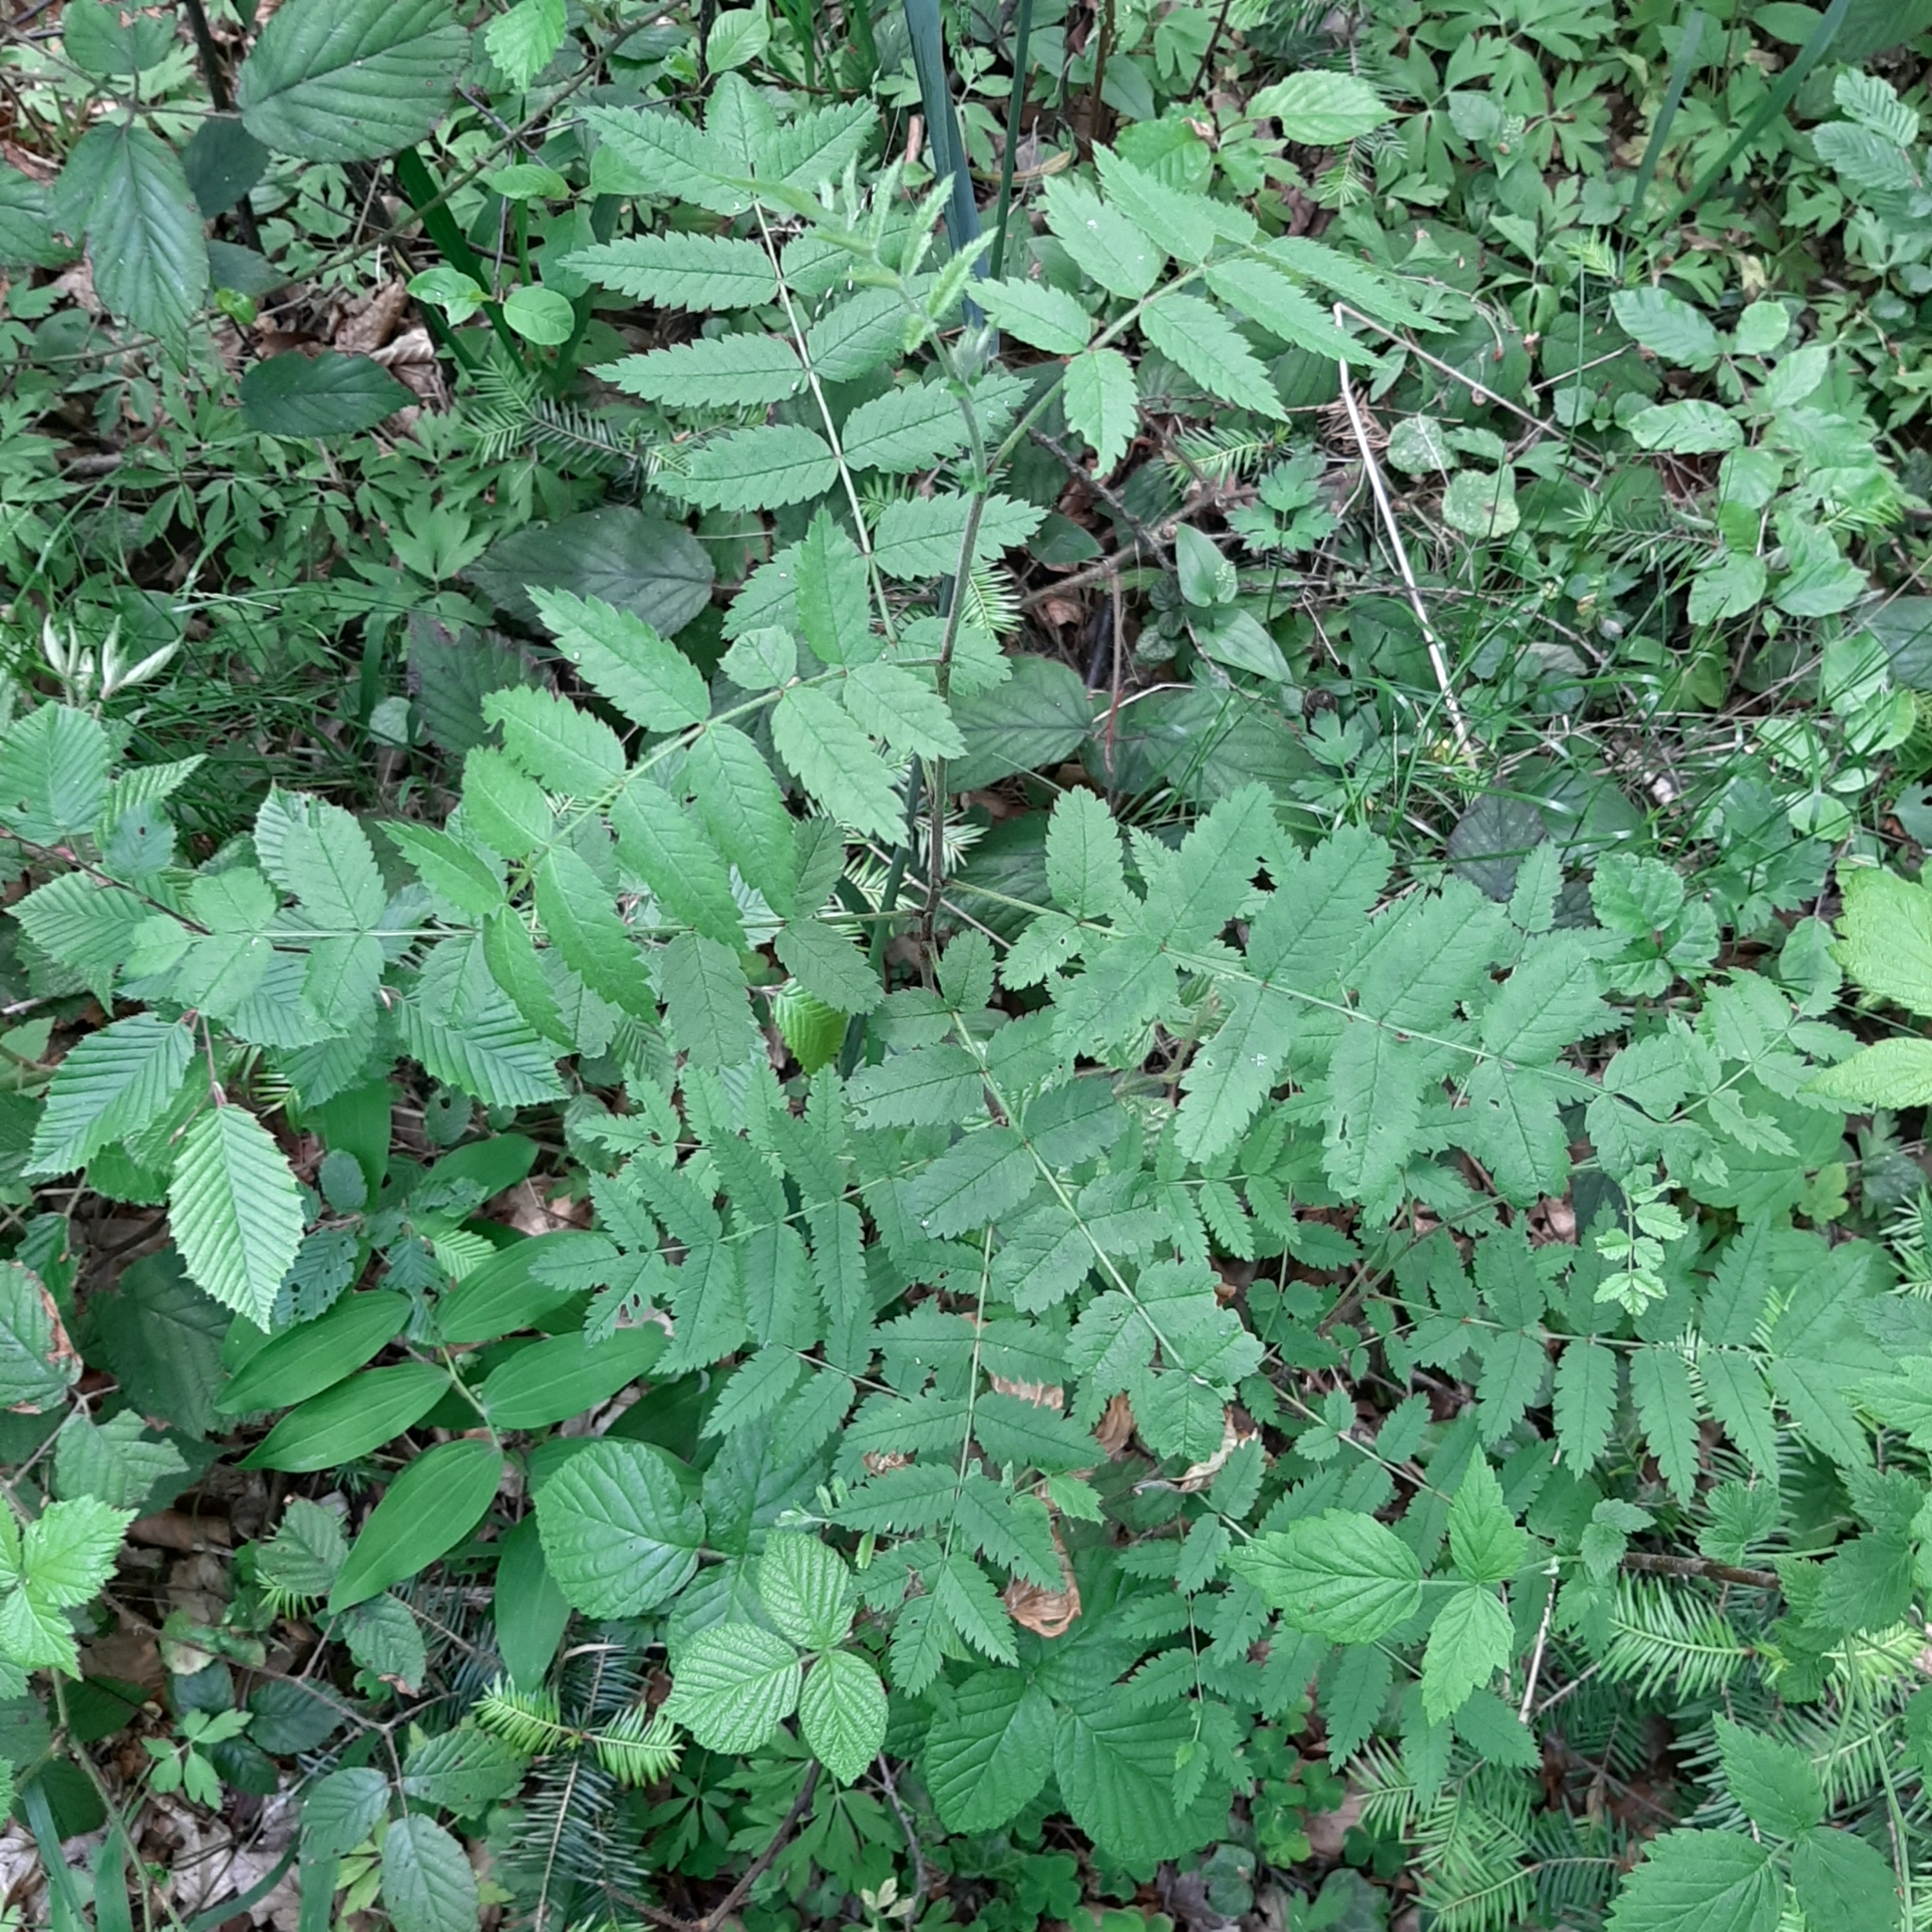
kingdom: Plantae
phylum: Tracheophyta
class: Magnoliopsida
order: Rosales
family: Rosaceae
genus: Sorbus
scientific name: Sorbus aucuparia
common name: Rowan
